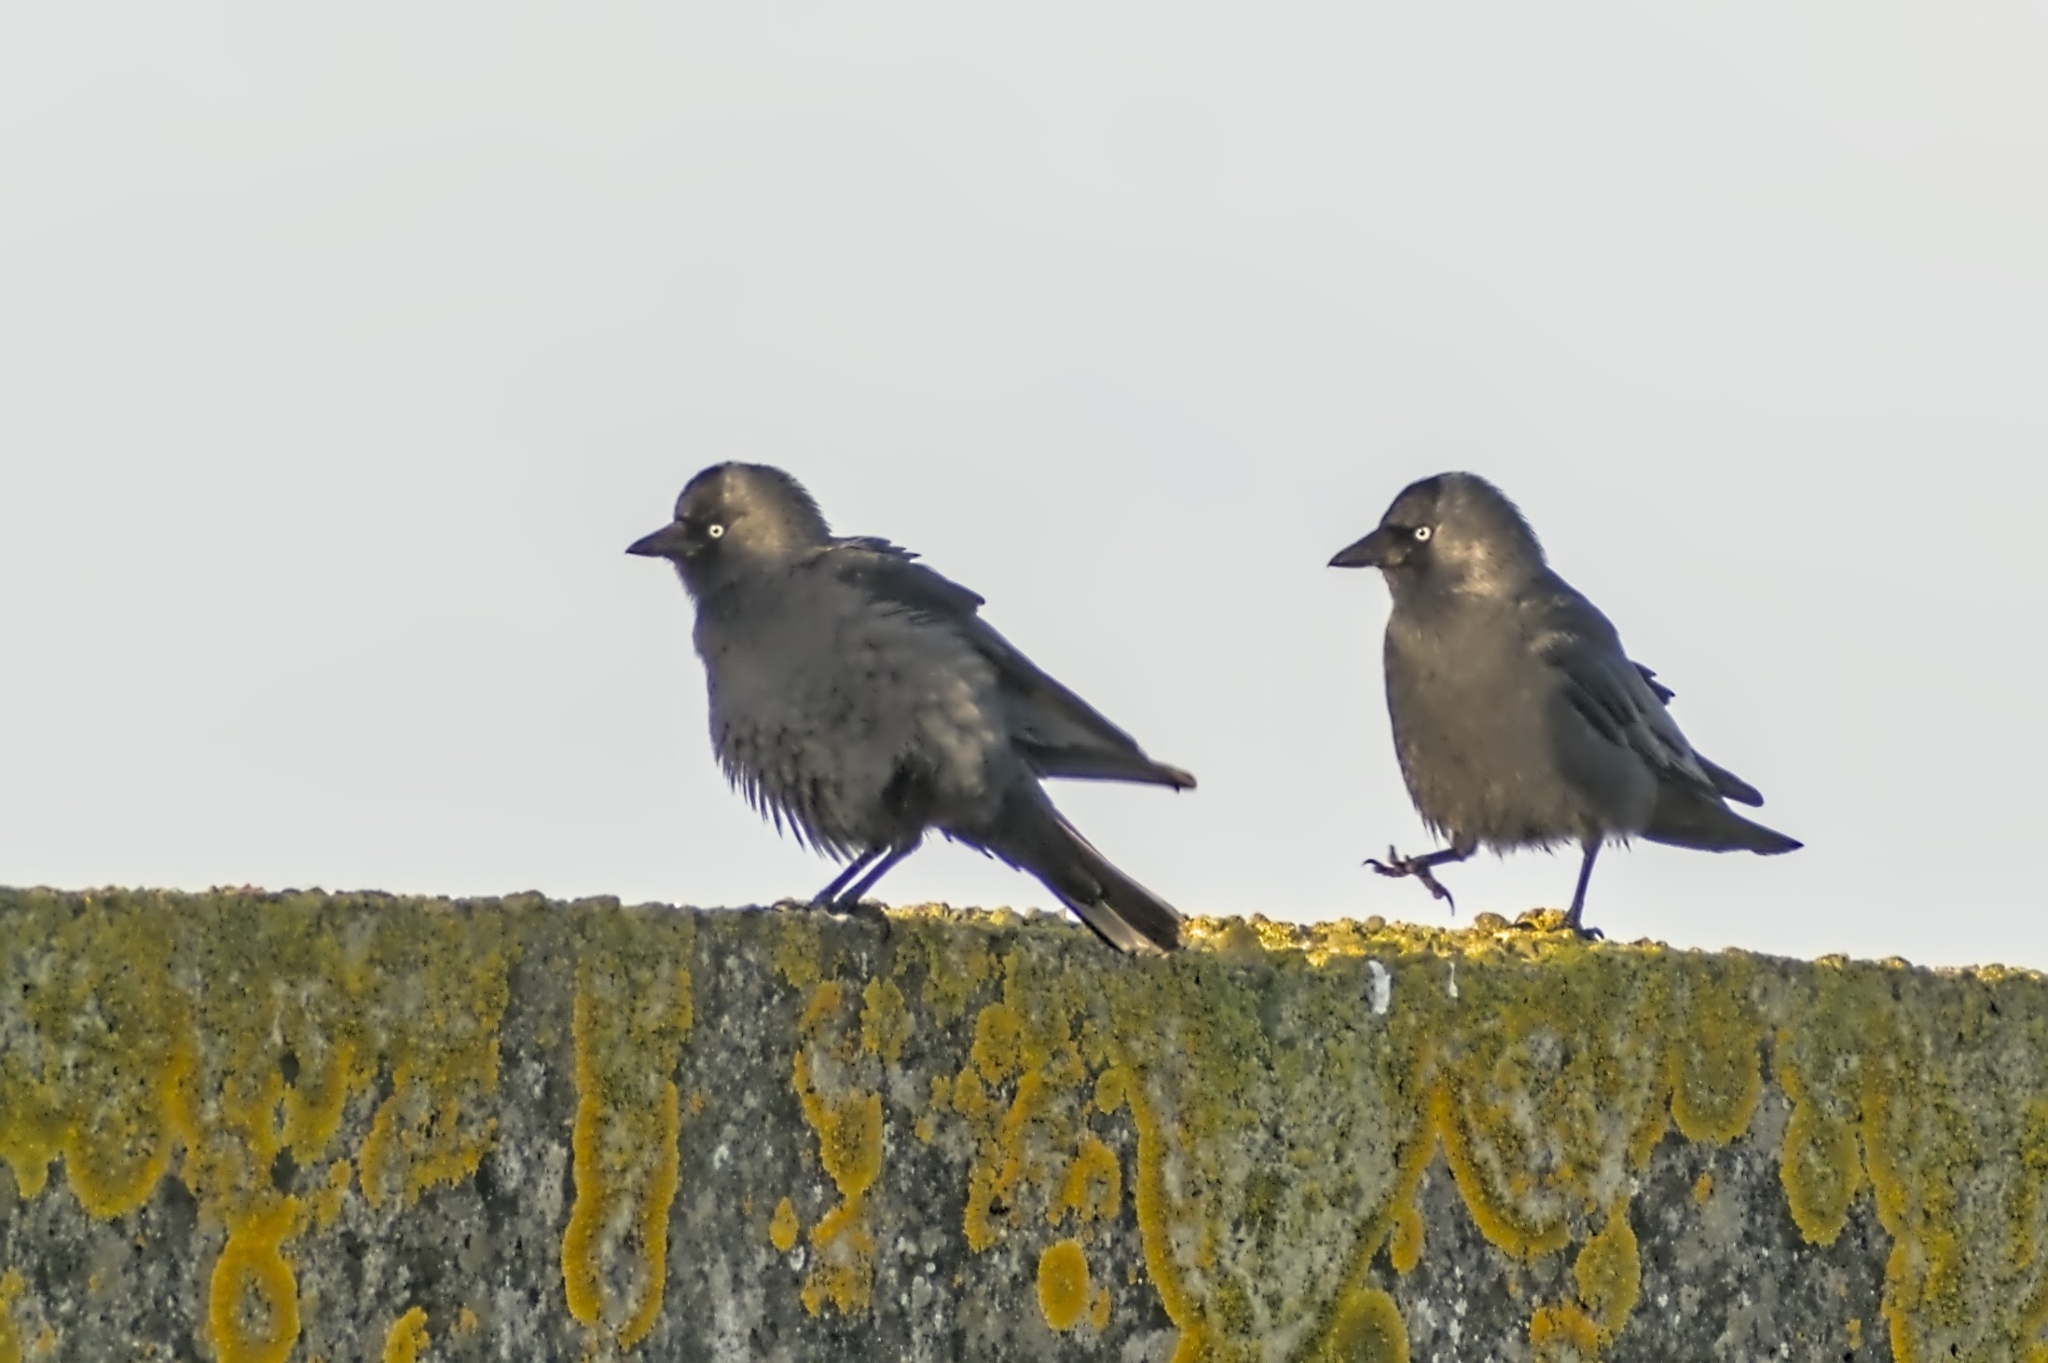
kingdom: Animalia
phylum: Chordata
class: Aves
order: Passeriformes
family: Corvidae
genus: Coloeus
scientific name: Coloeus monedula
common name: Western jackdaw
